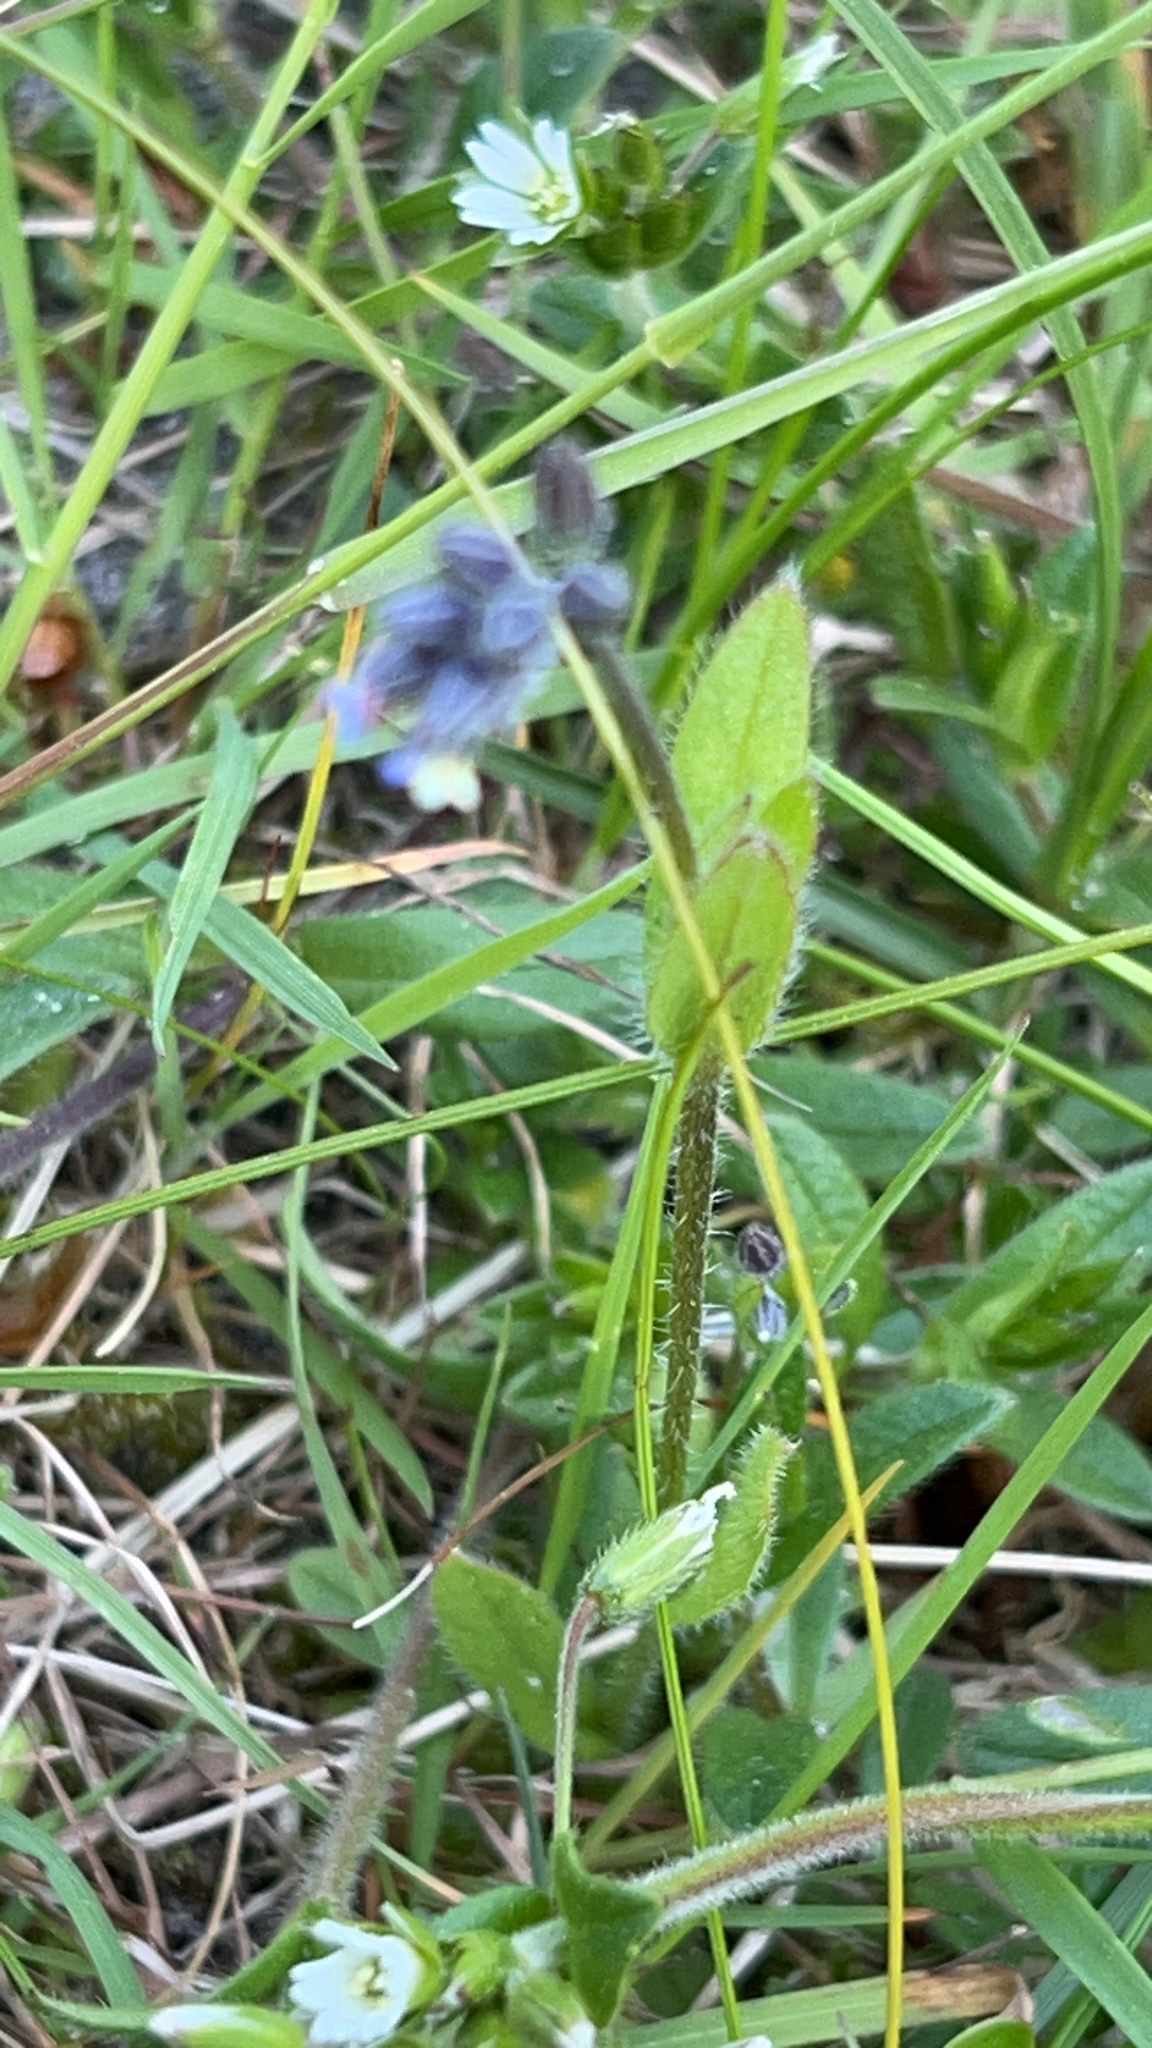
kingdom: Plantae
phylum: Tracheophyta
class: Magnoliopsida
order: Boraginales
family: Boraginaceae
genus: Myosotis
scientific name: Myosotis discolor
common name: Changing forget-me-not
